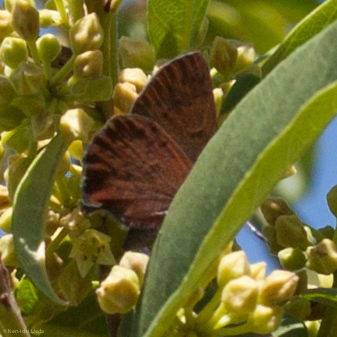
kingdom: Animalia
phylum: Arthropoda
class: Insecta
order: Lepidoptera
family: Lycaenidae
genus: Incisalia
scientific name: Incisalia irioides
